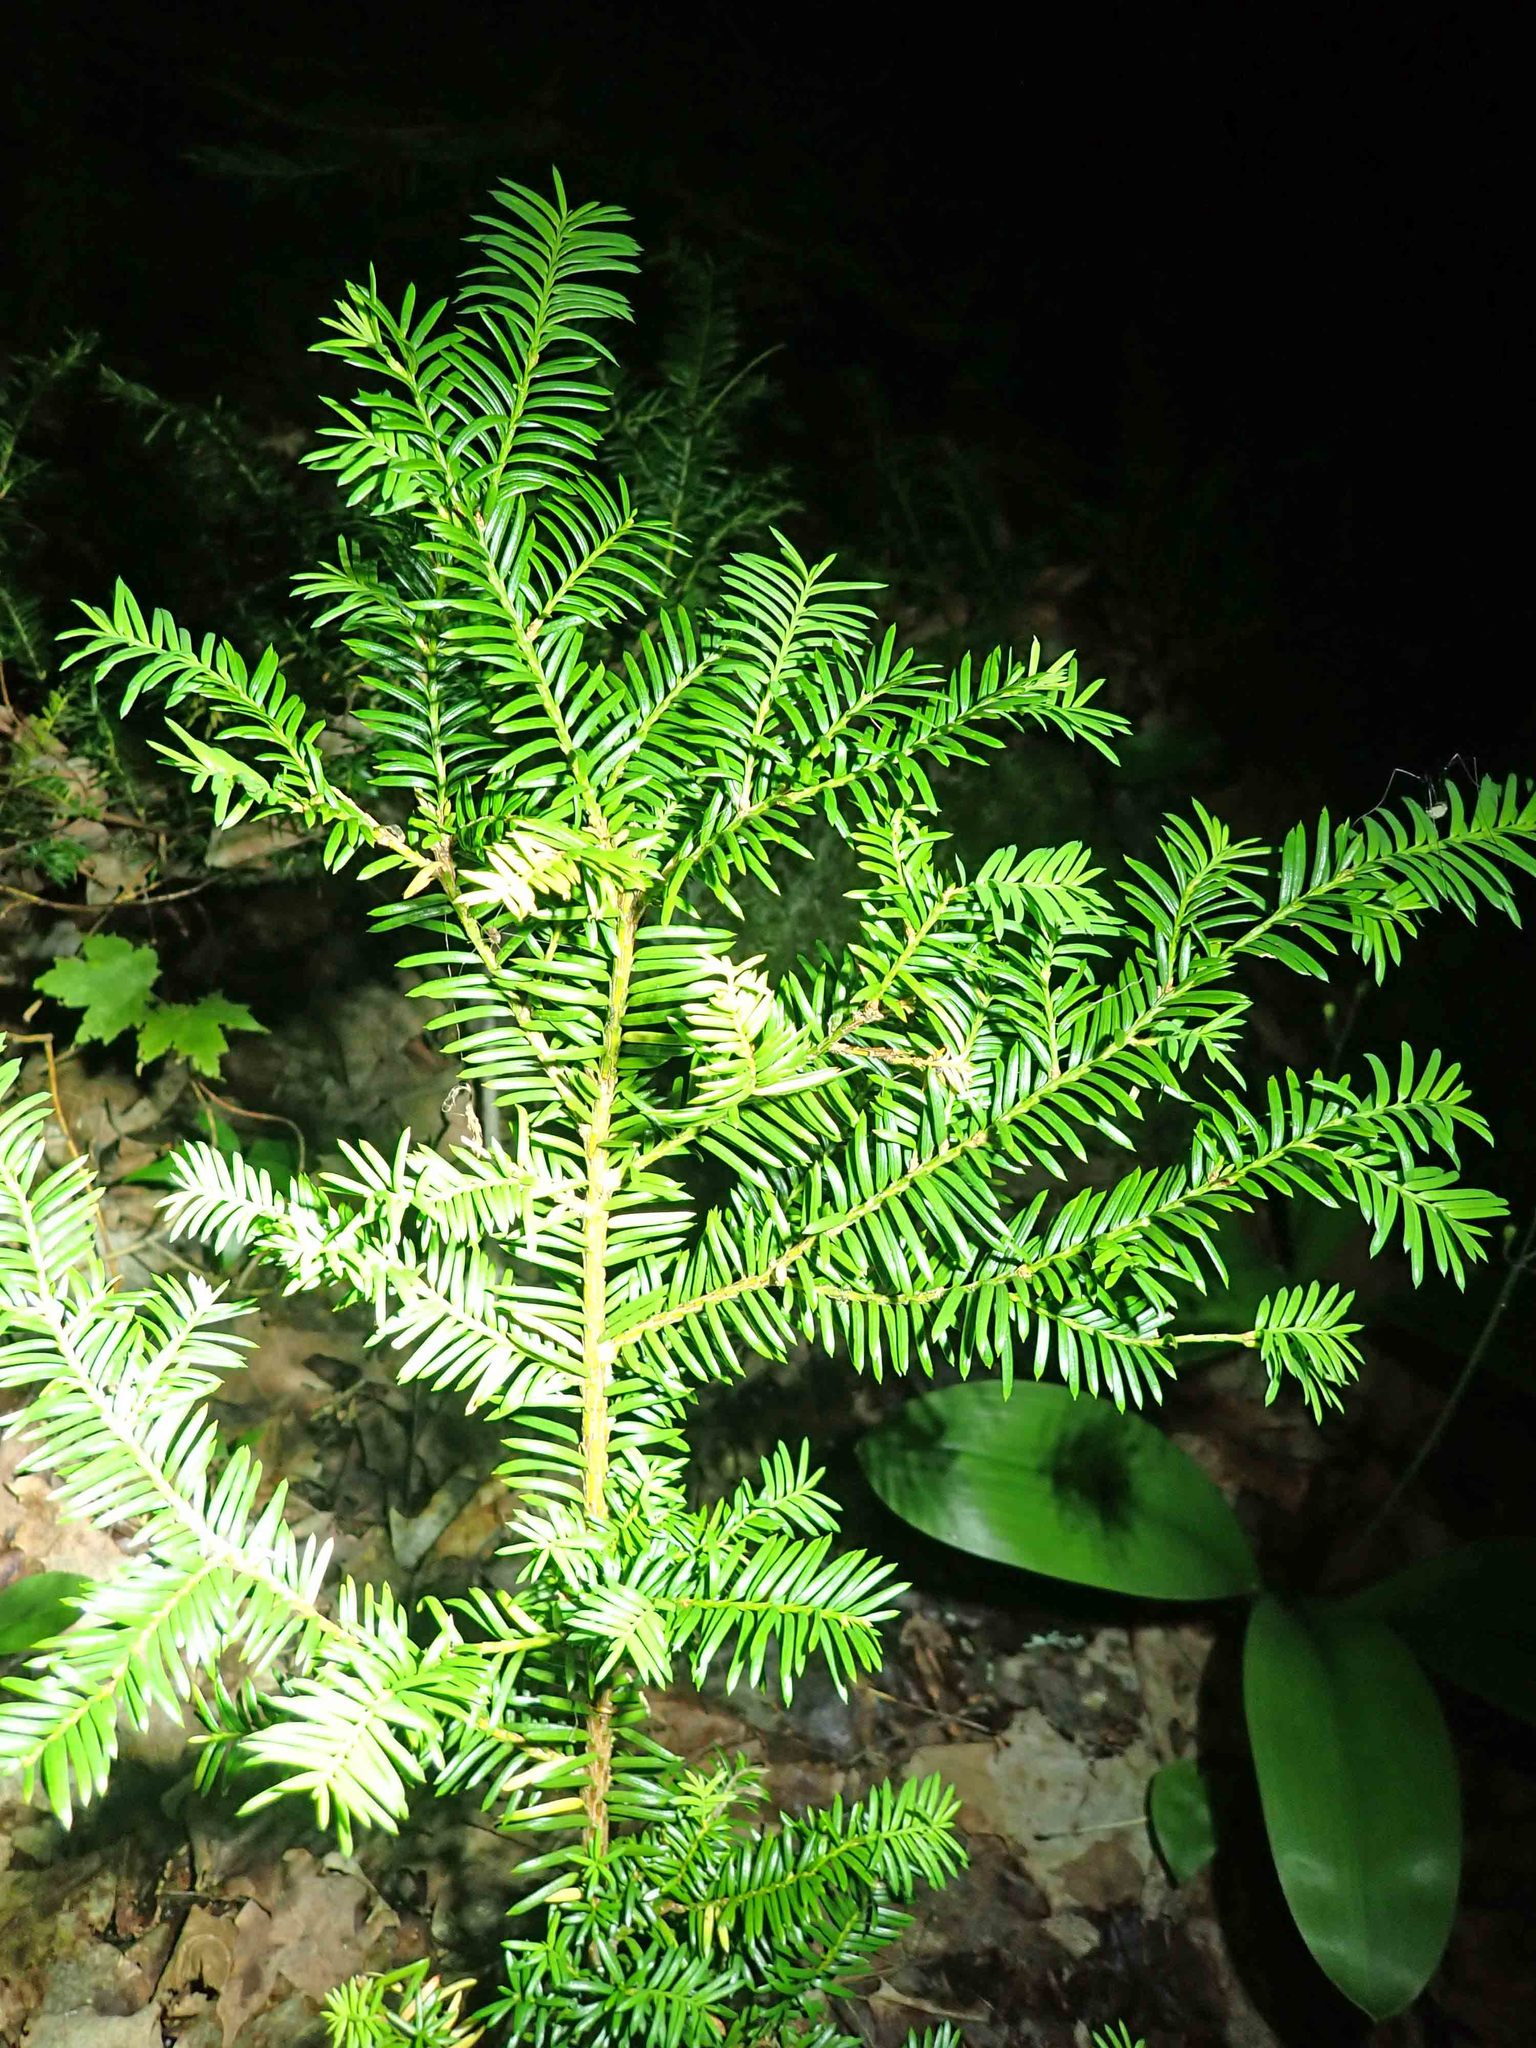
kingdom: Plantae
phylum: Tracheophyta
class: Pinopsida
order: Pinales
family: Taxaceae
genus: Taxus
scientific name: Taxus canadensis
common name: American yew
